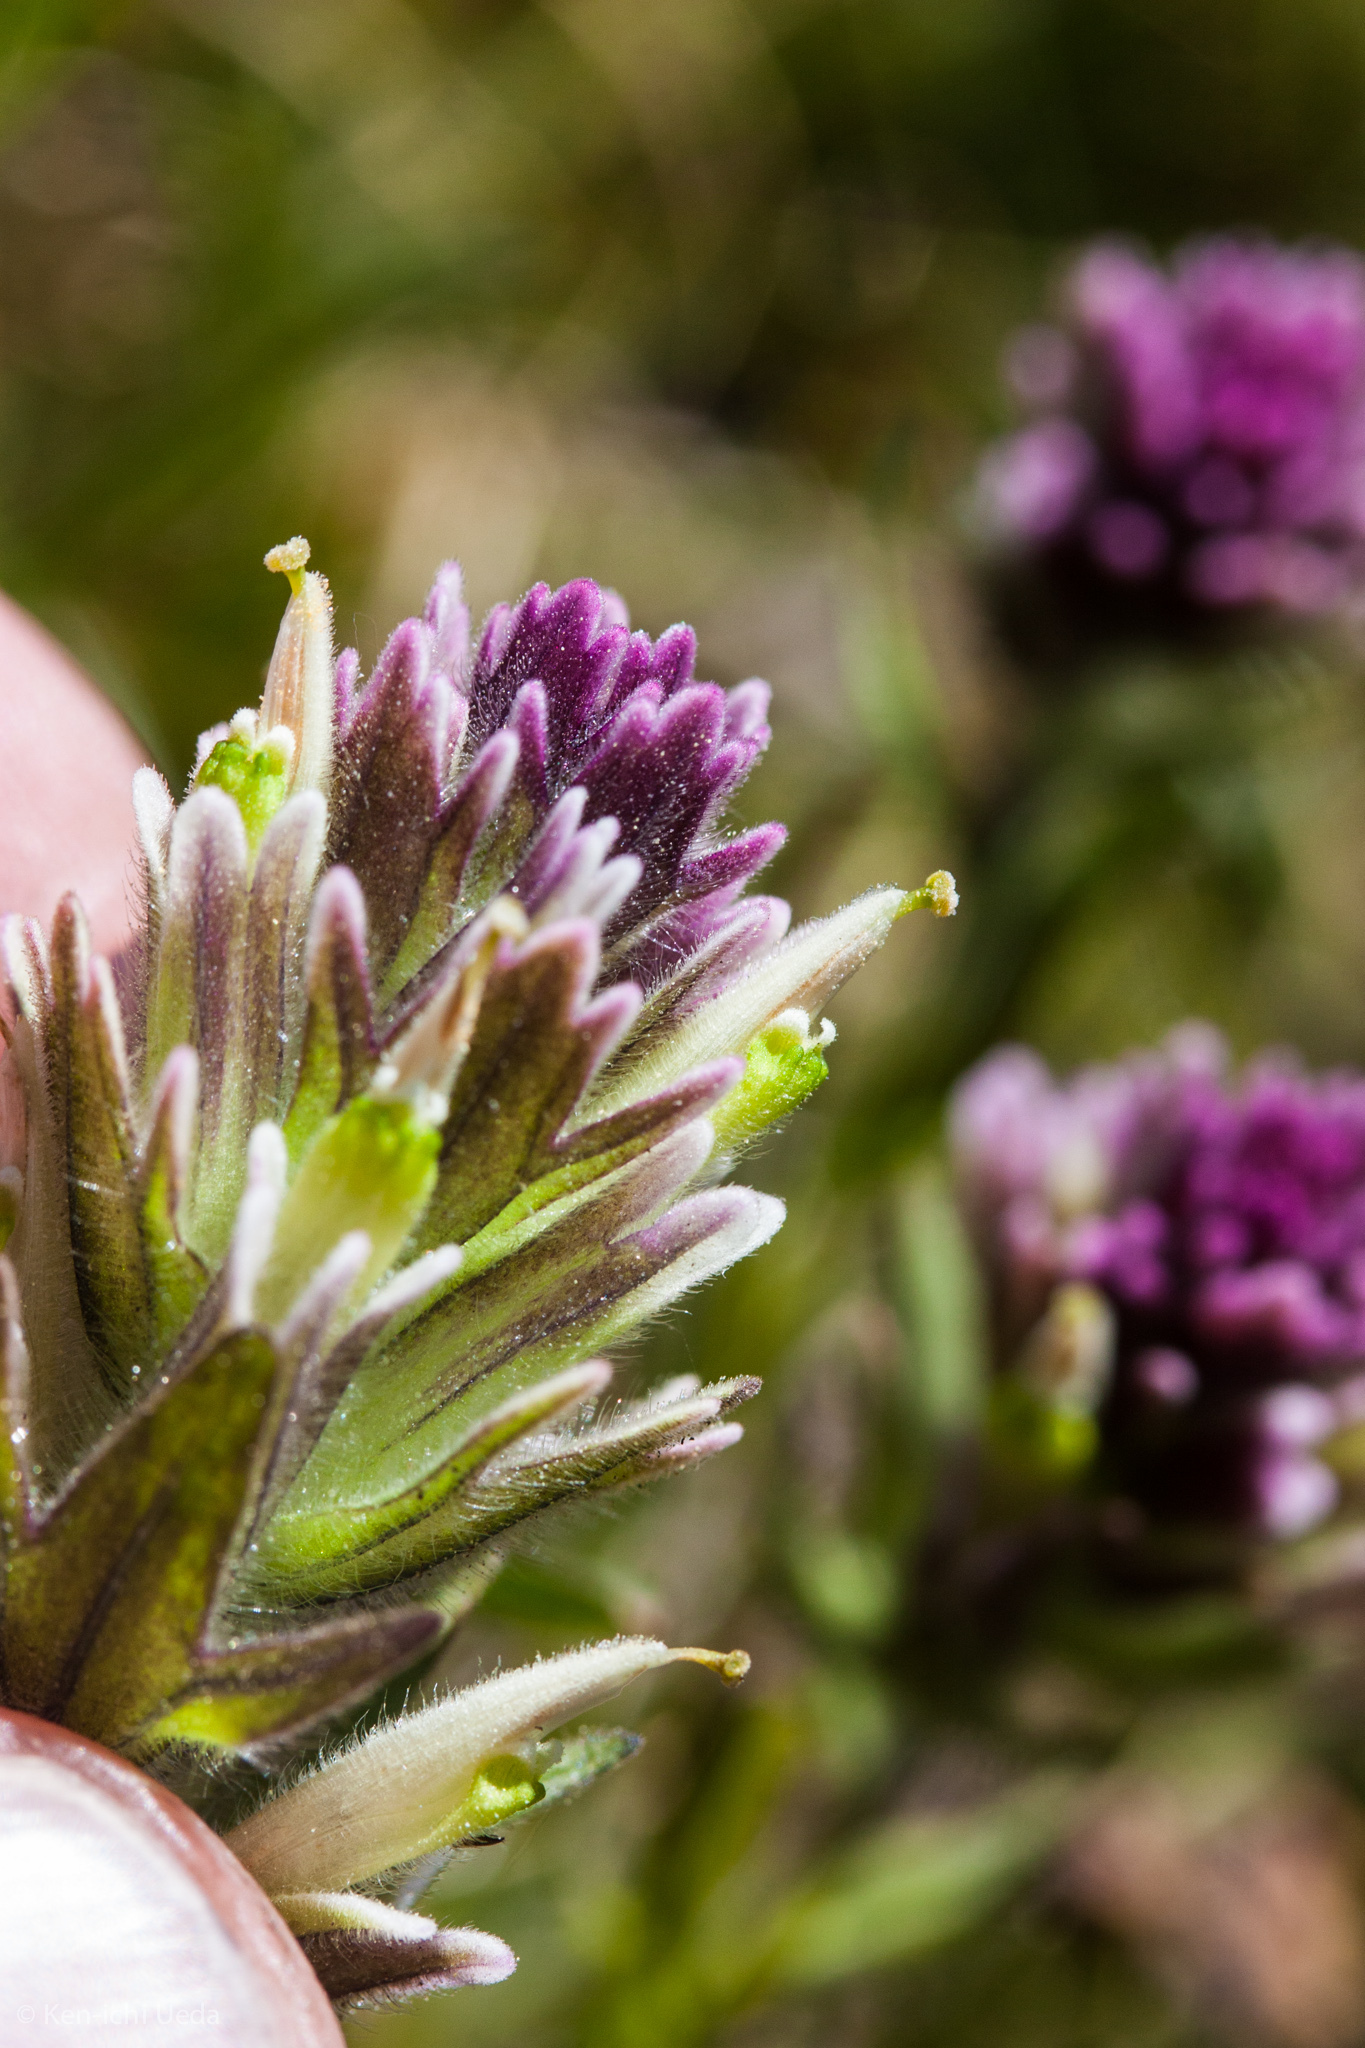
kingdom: Plantae
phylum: Tracheophyta
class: Magnoliopsida
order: Lamiales
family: Orobanchaceae
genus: Castilleja
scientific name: Castilleja lemmonii
